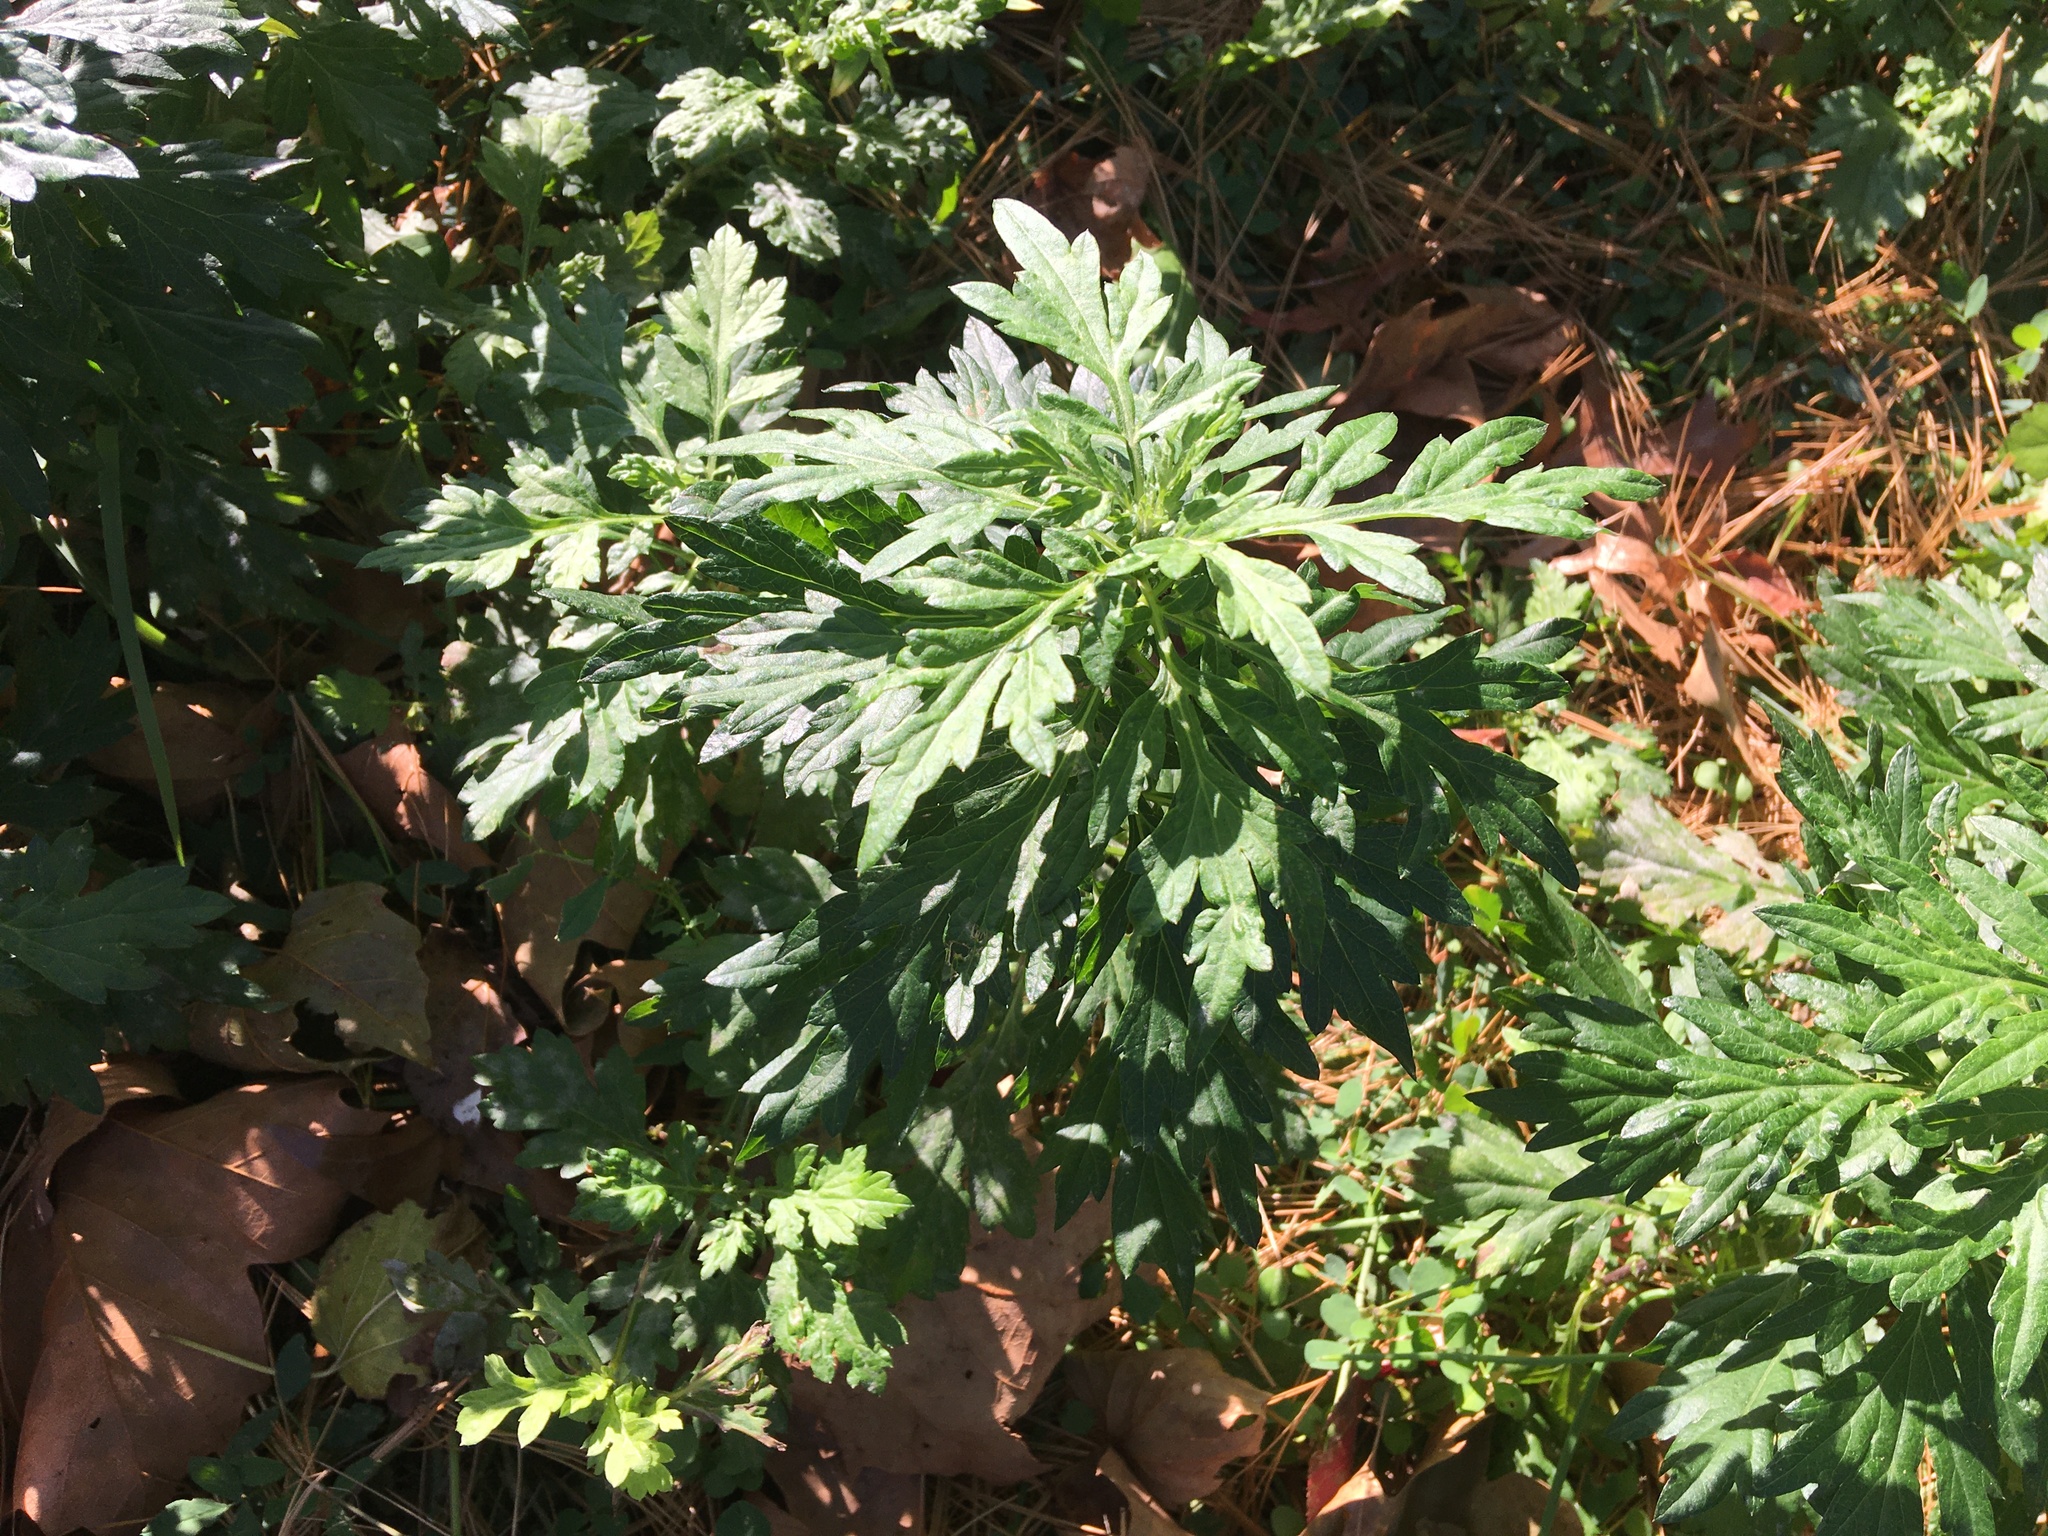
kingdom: Plantae
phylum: Tracheophyta
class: Magnoliopsida
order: Asterales
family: Asteraceae
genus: Artemisia
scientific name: Artemisia vulgaris
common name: Mugwort
